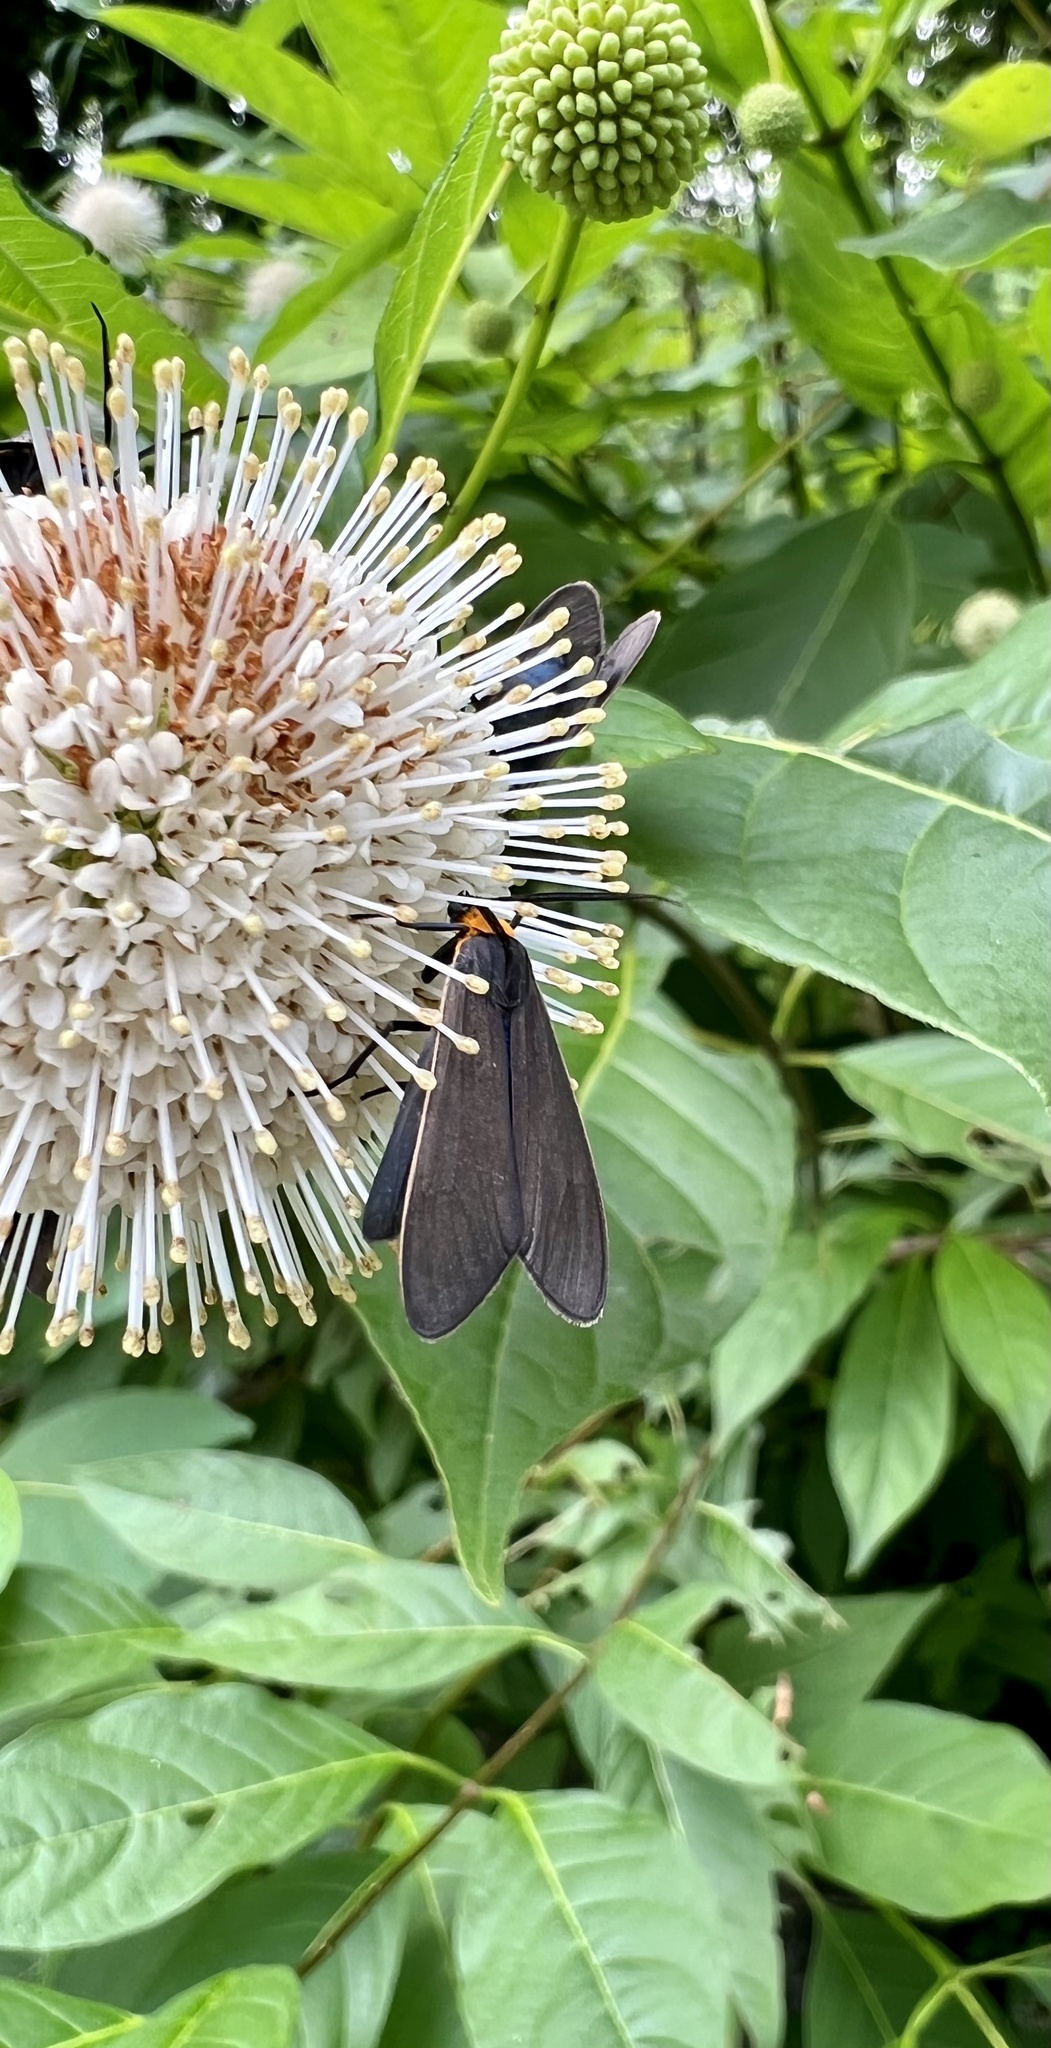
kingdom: Animalia
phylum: Arthropoda
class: Insecta
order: Lepidoptera
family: Erebidae
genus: Cisseps
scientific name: Cisseps fulvicollis
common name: Yellow-collared scape moth
